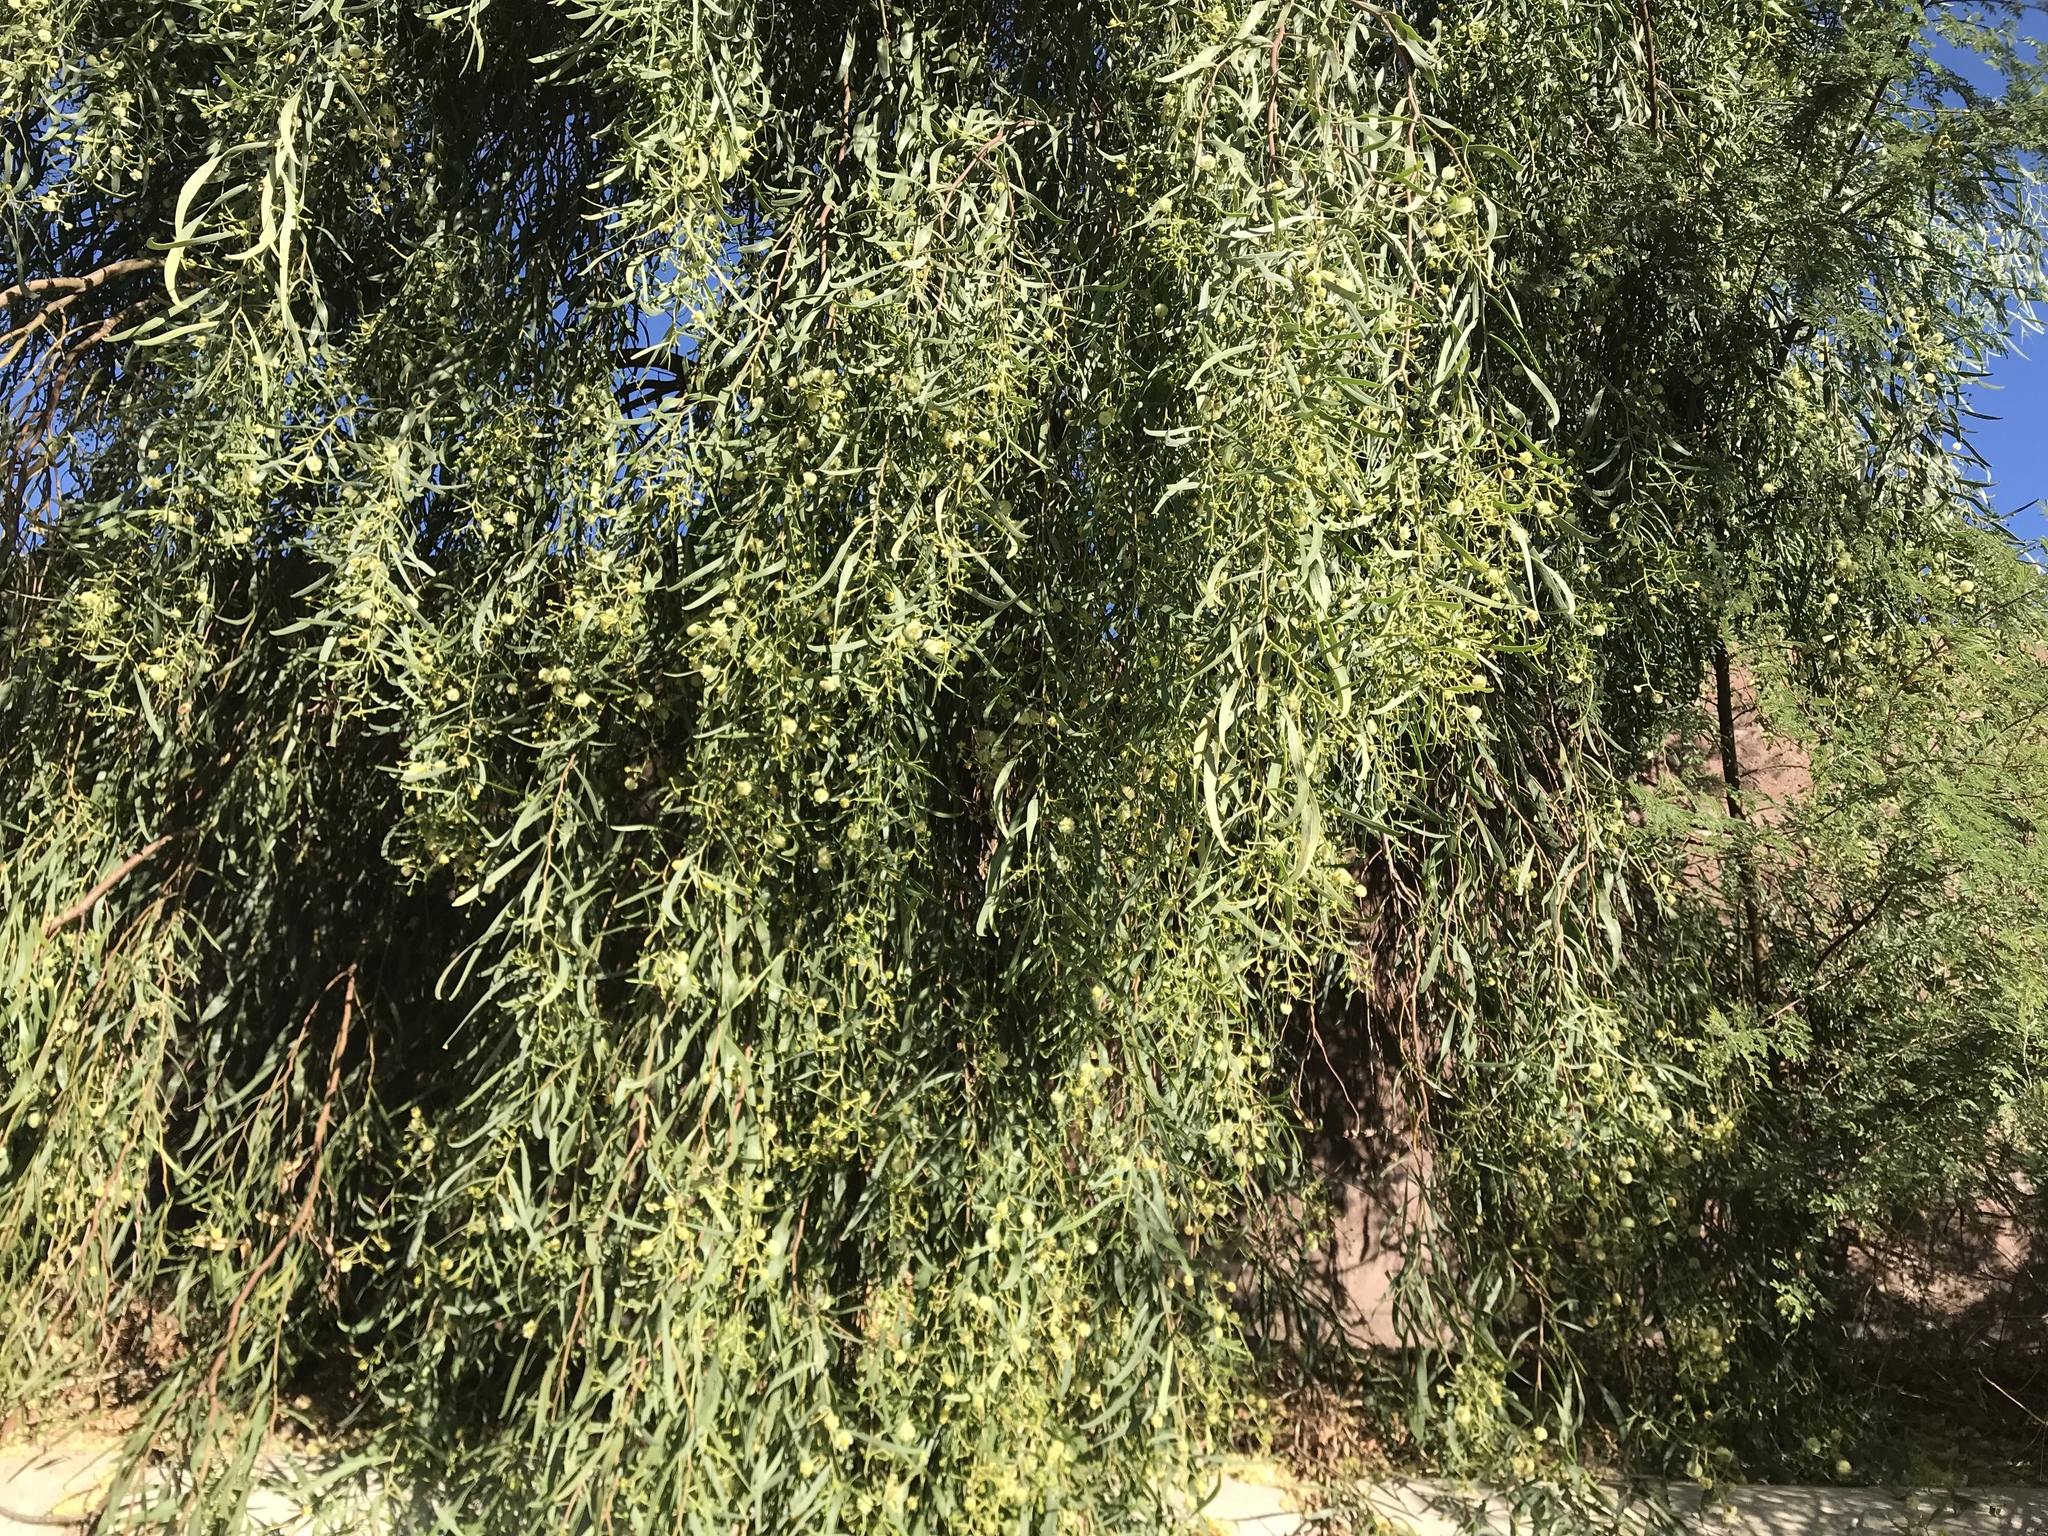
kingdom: Plantae
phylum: Tracheophyta
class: Magnoliopsida
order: Fabales
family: Fabaceae
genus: Acacia
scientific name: Acacia salicina
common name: Broughton willow wattle
